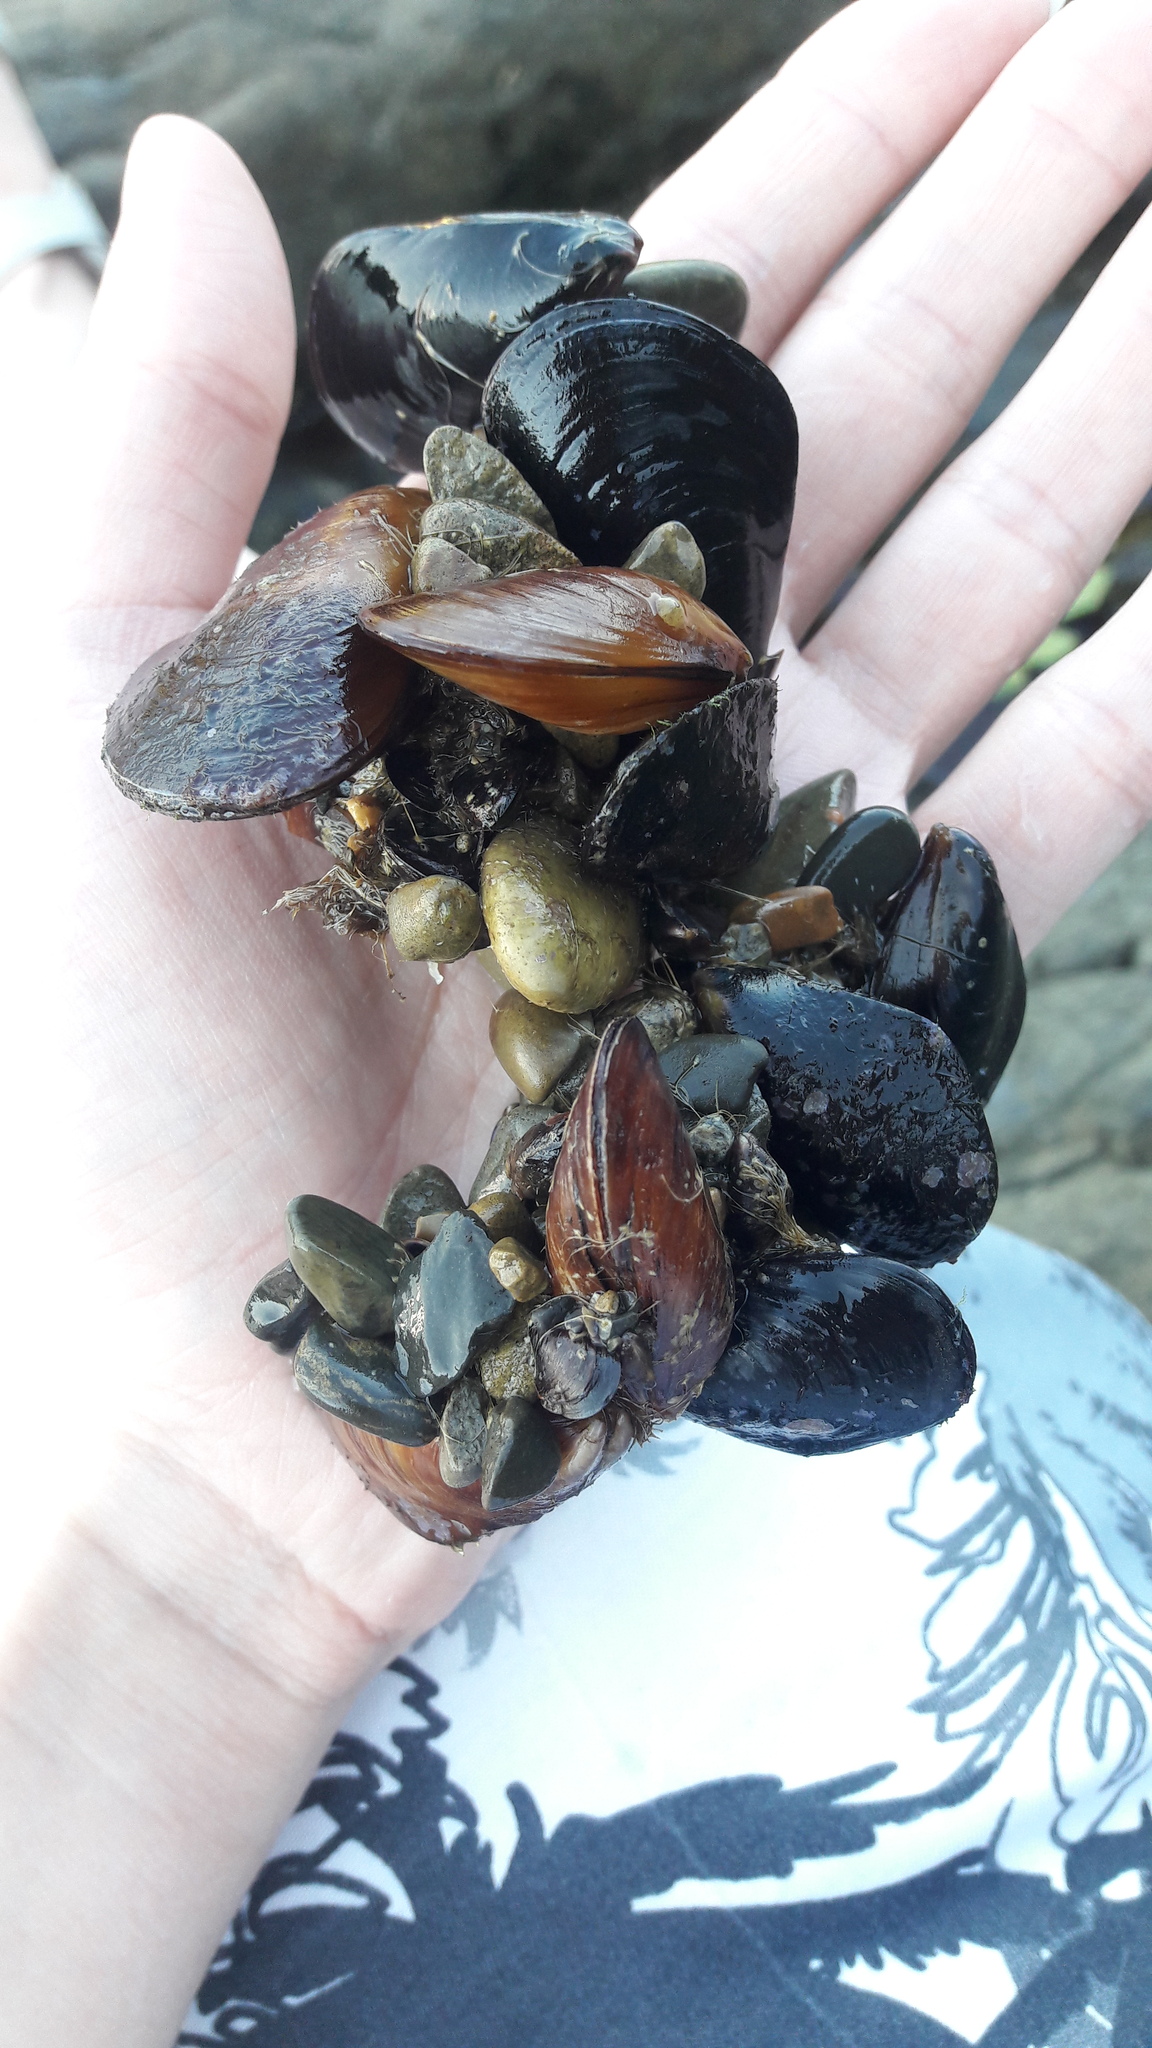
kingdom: Animalia
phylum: Mollusca
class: Bivalvia
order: Mytilida
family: Mytilidae
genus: Mytilus
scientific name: Mytilus galloprovincialis
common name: Mediterranean mussel
